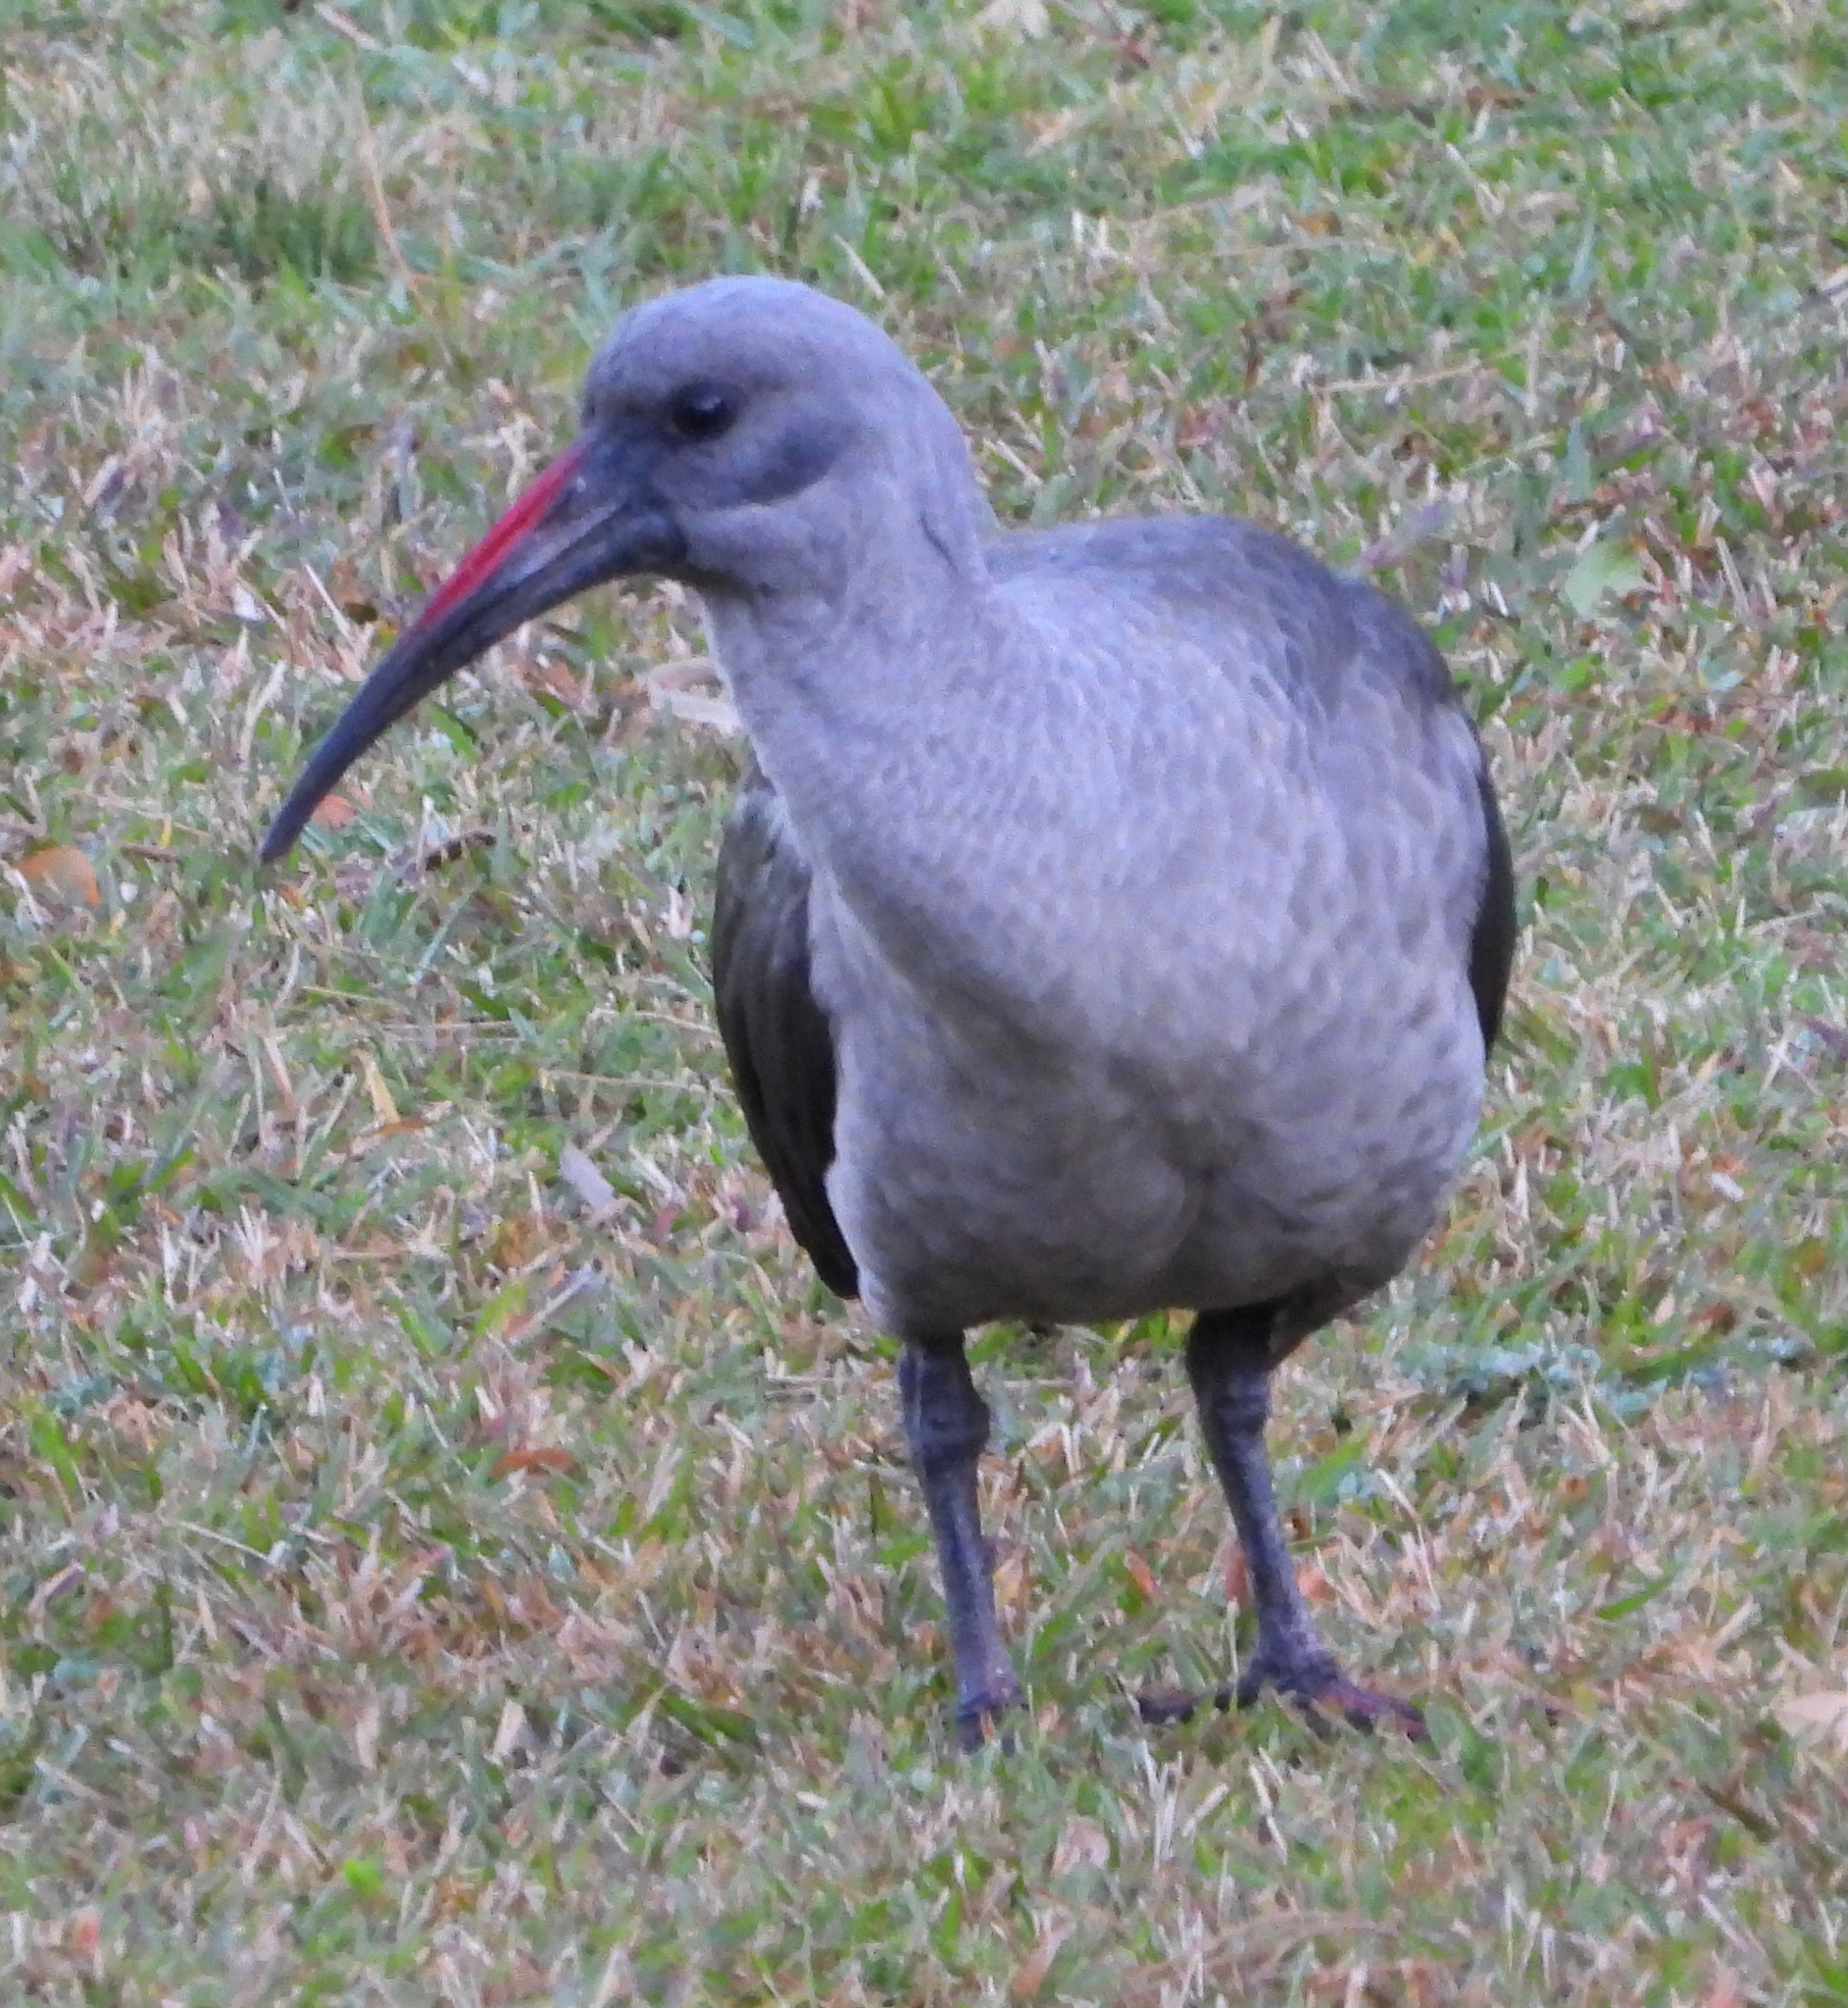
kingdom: Animalia
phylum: Chordata
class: Aves
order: Pelecaniformes
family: Threskiornithidae
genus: Bostrychia
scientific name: Bostrychia hagedash
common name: Hadada ibis
